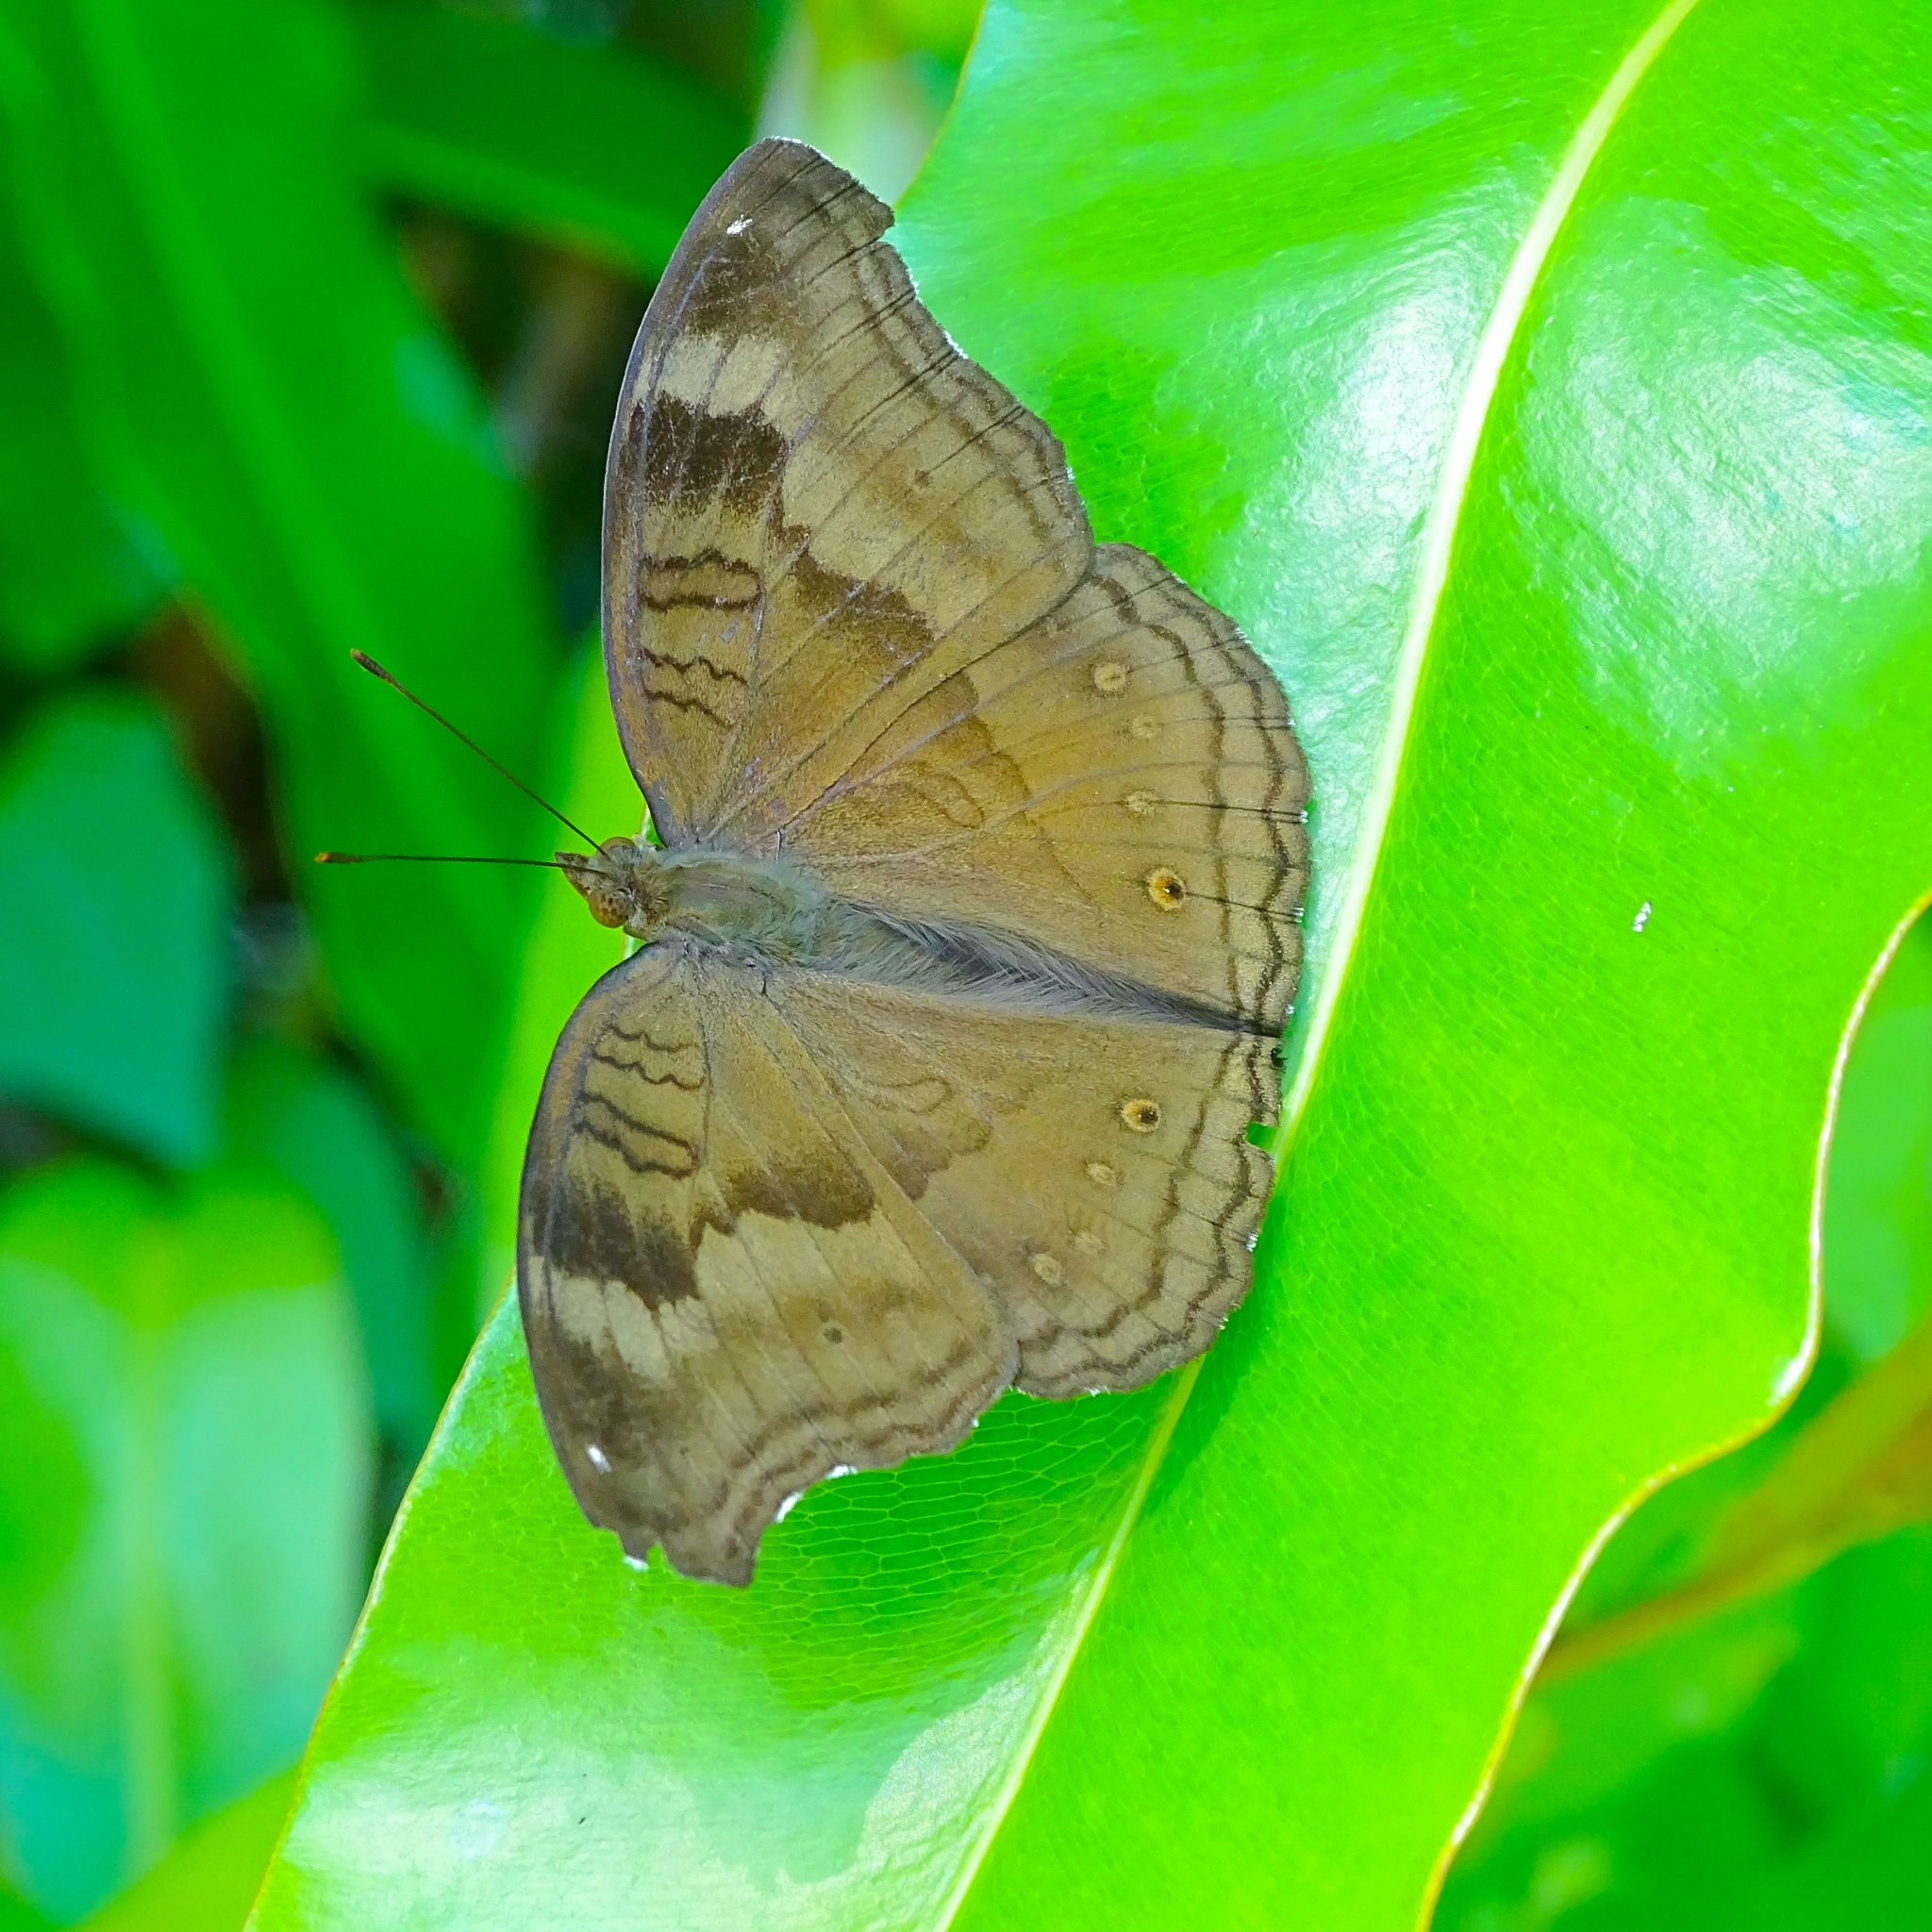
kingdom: Animalia
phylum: Arthropoda
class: Insecta
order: Lepidoptera
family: Nymphalidae
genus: Junonia
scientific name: Junonia iphita
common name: Chocolate pansy
